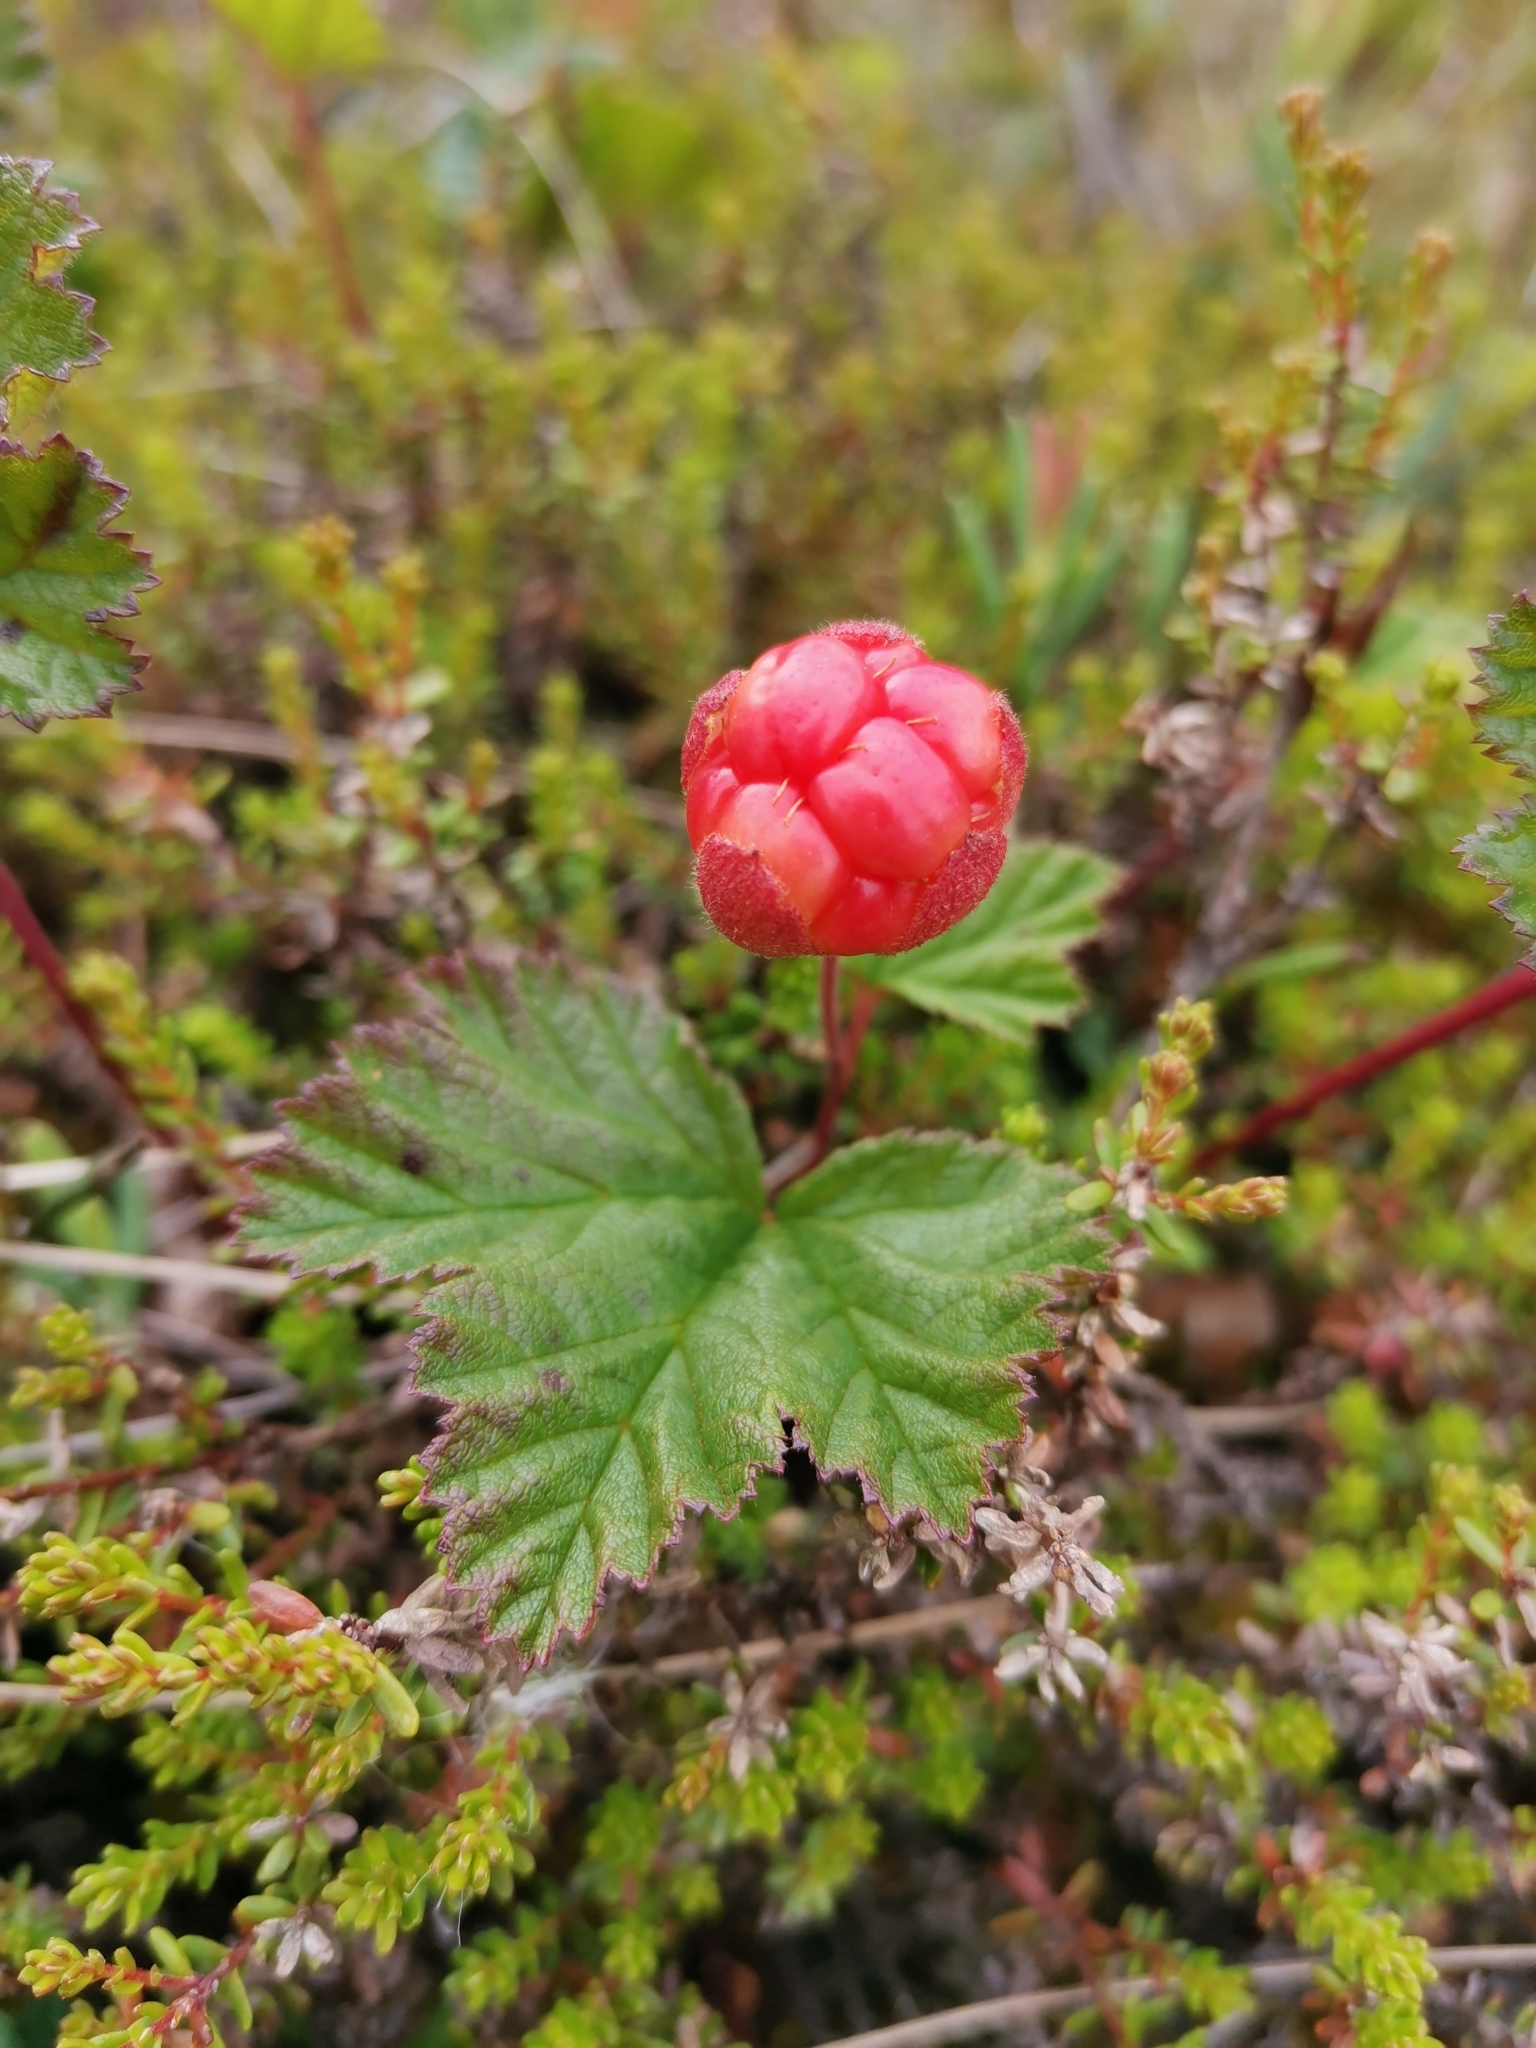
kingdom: Plantae
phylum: Tracheophyta
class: Magnoliopsida
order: Rosales
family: Rosaceae
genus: Rubus
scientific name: Rubus chamaemorus
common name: Cloudberry
